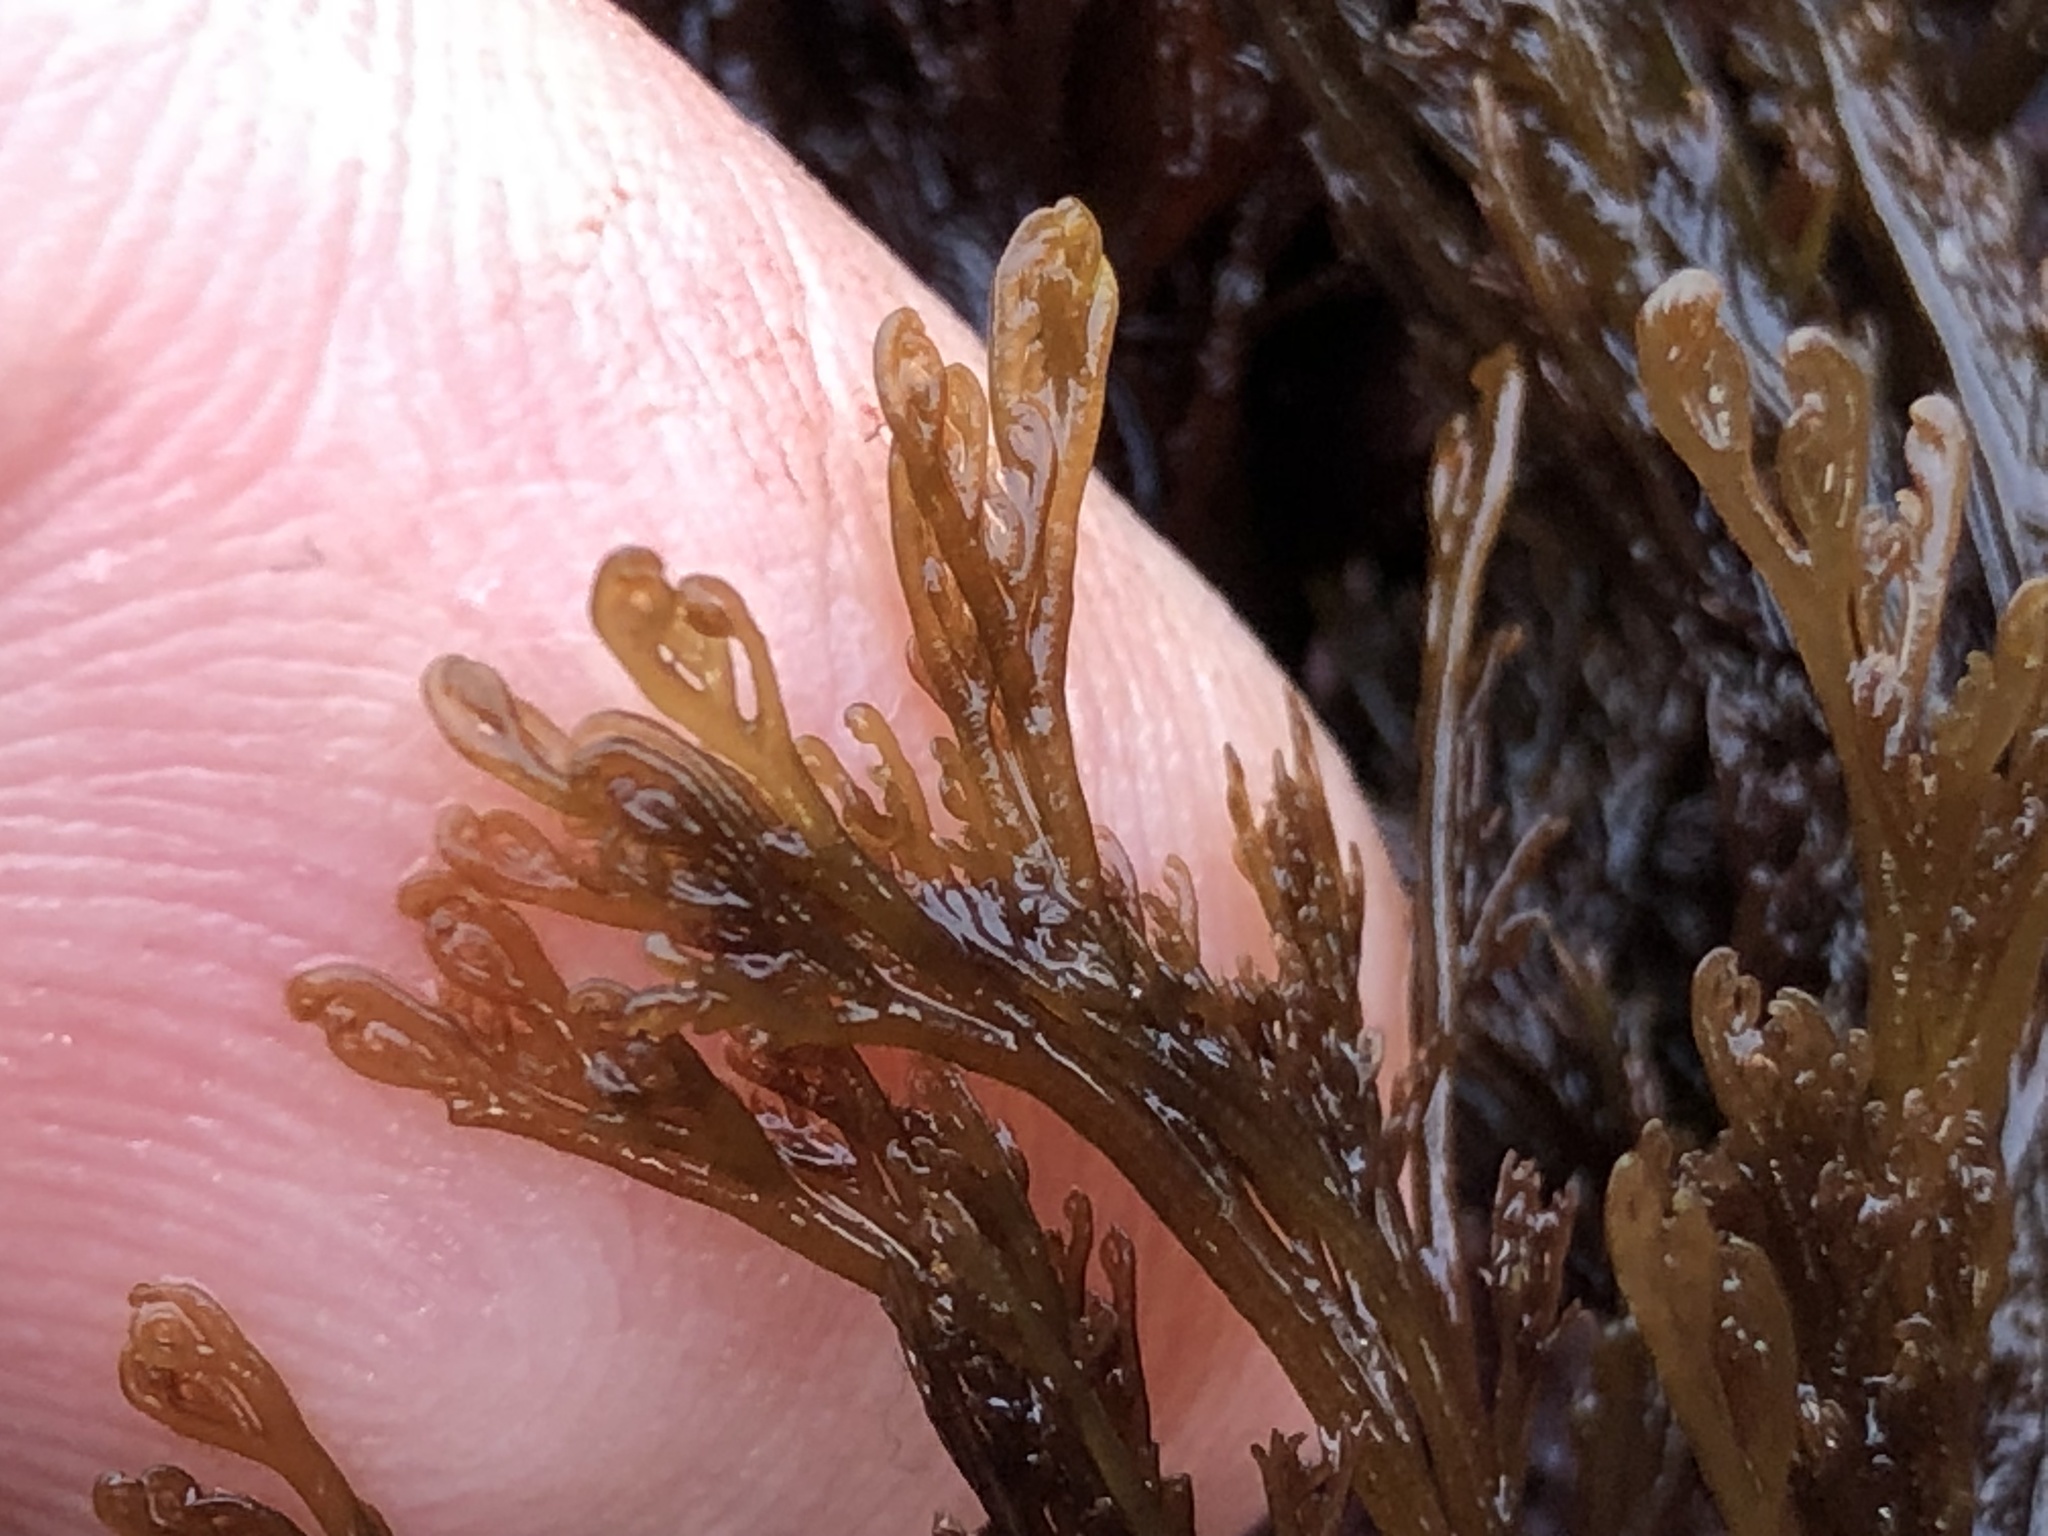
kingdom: Plantae
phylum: Rhodophyta
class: Florideophyceae
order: Ceramiales
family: Ceramiaceae
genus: Microcladia
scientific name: Microcladia borealis
